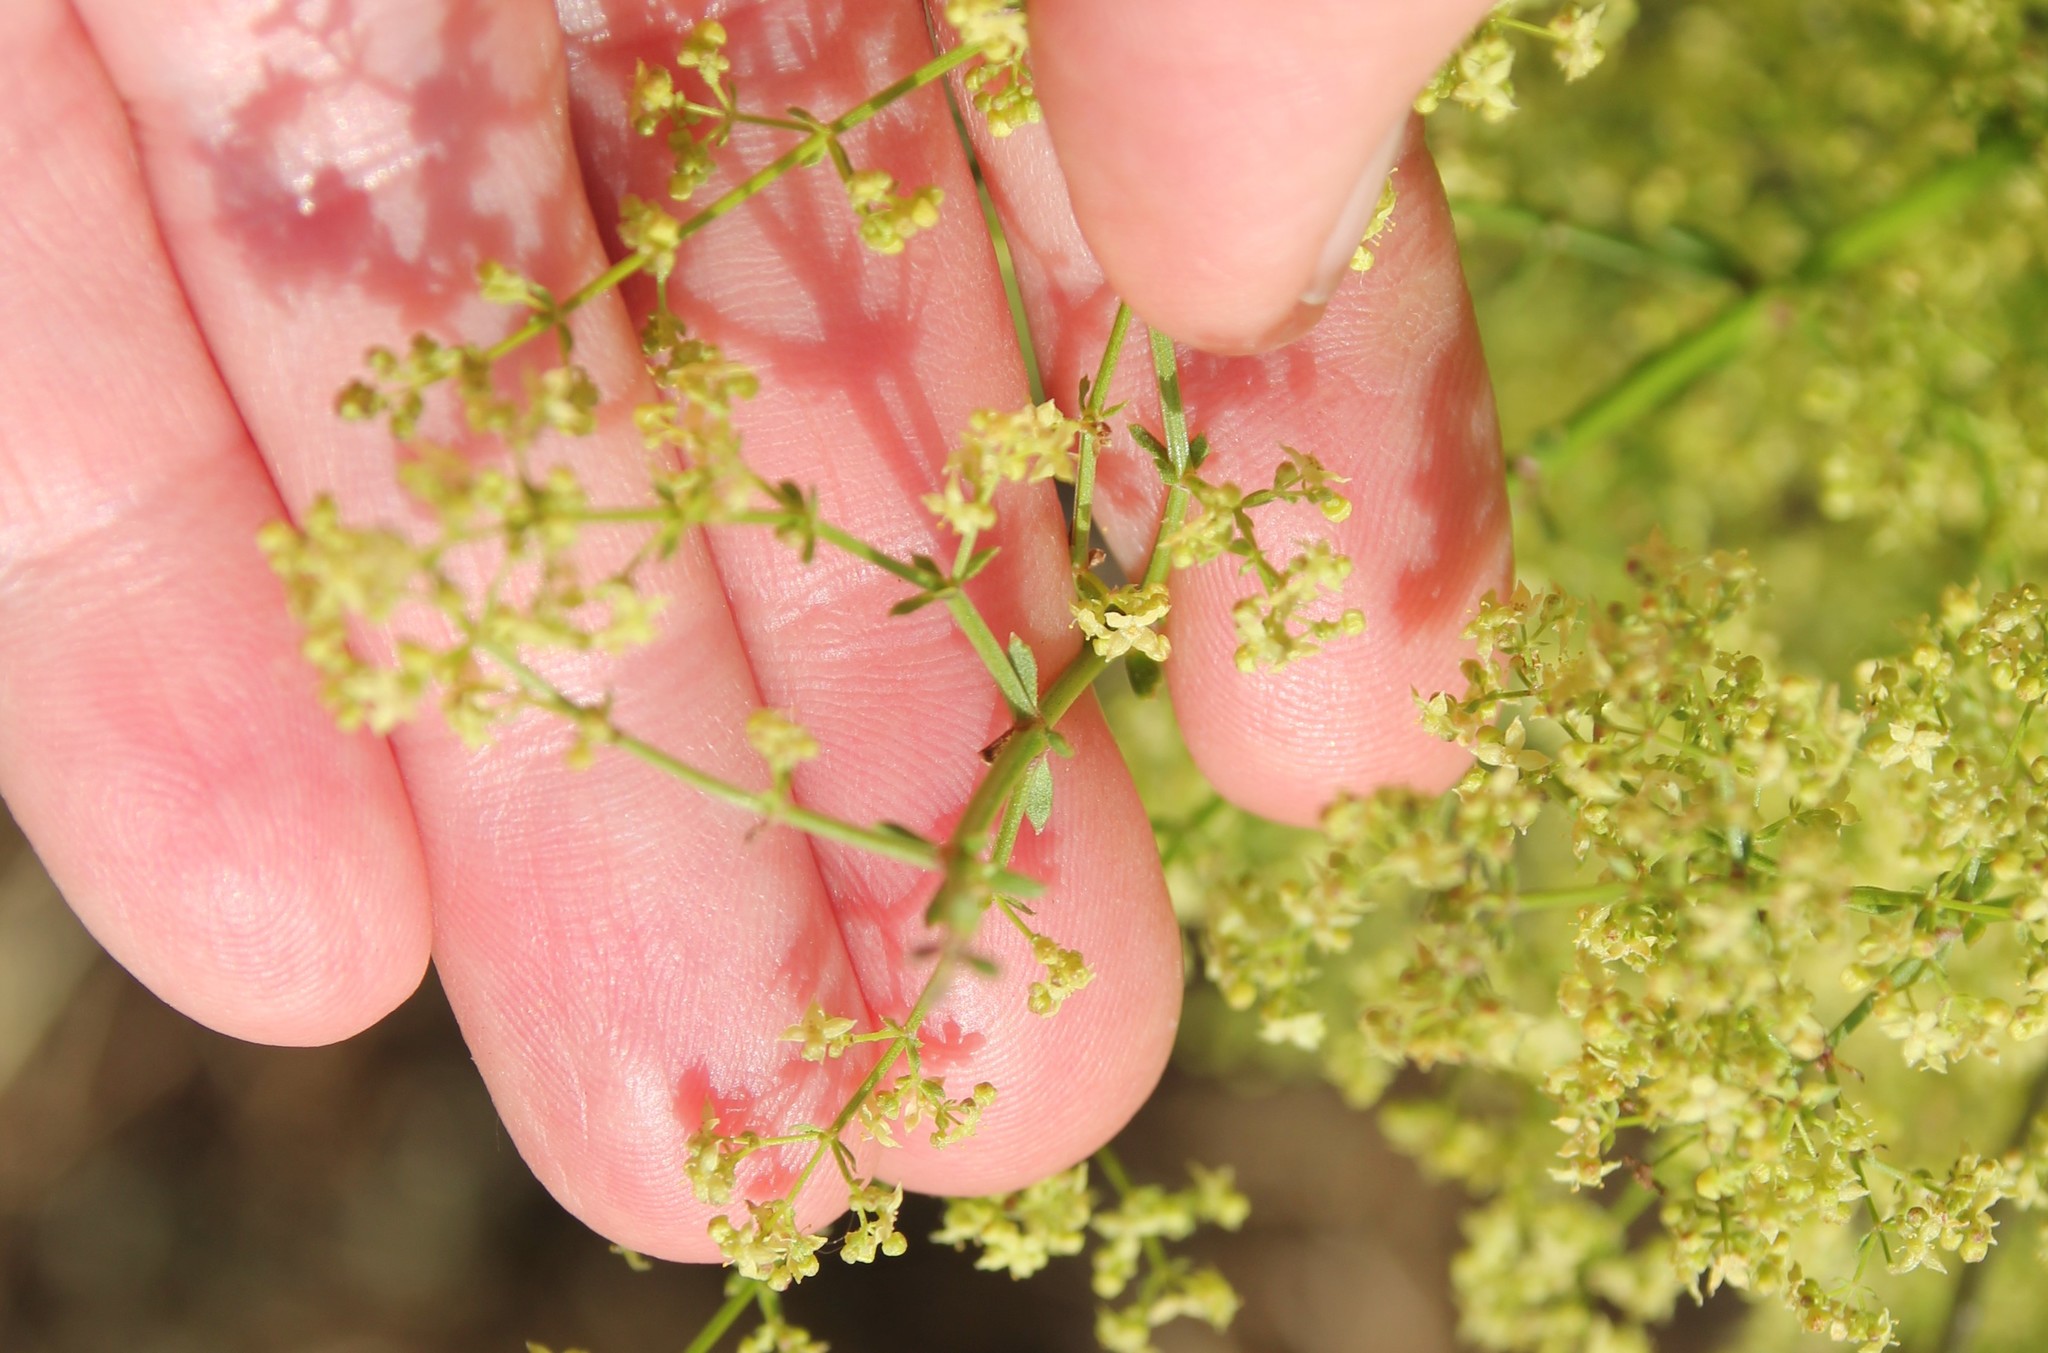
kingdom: Plantae
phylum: Tracheophyta
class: Magnoliopsida
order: Gentianales
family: Rubiaceae
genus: Galium
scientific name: Galium angustifolium
